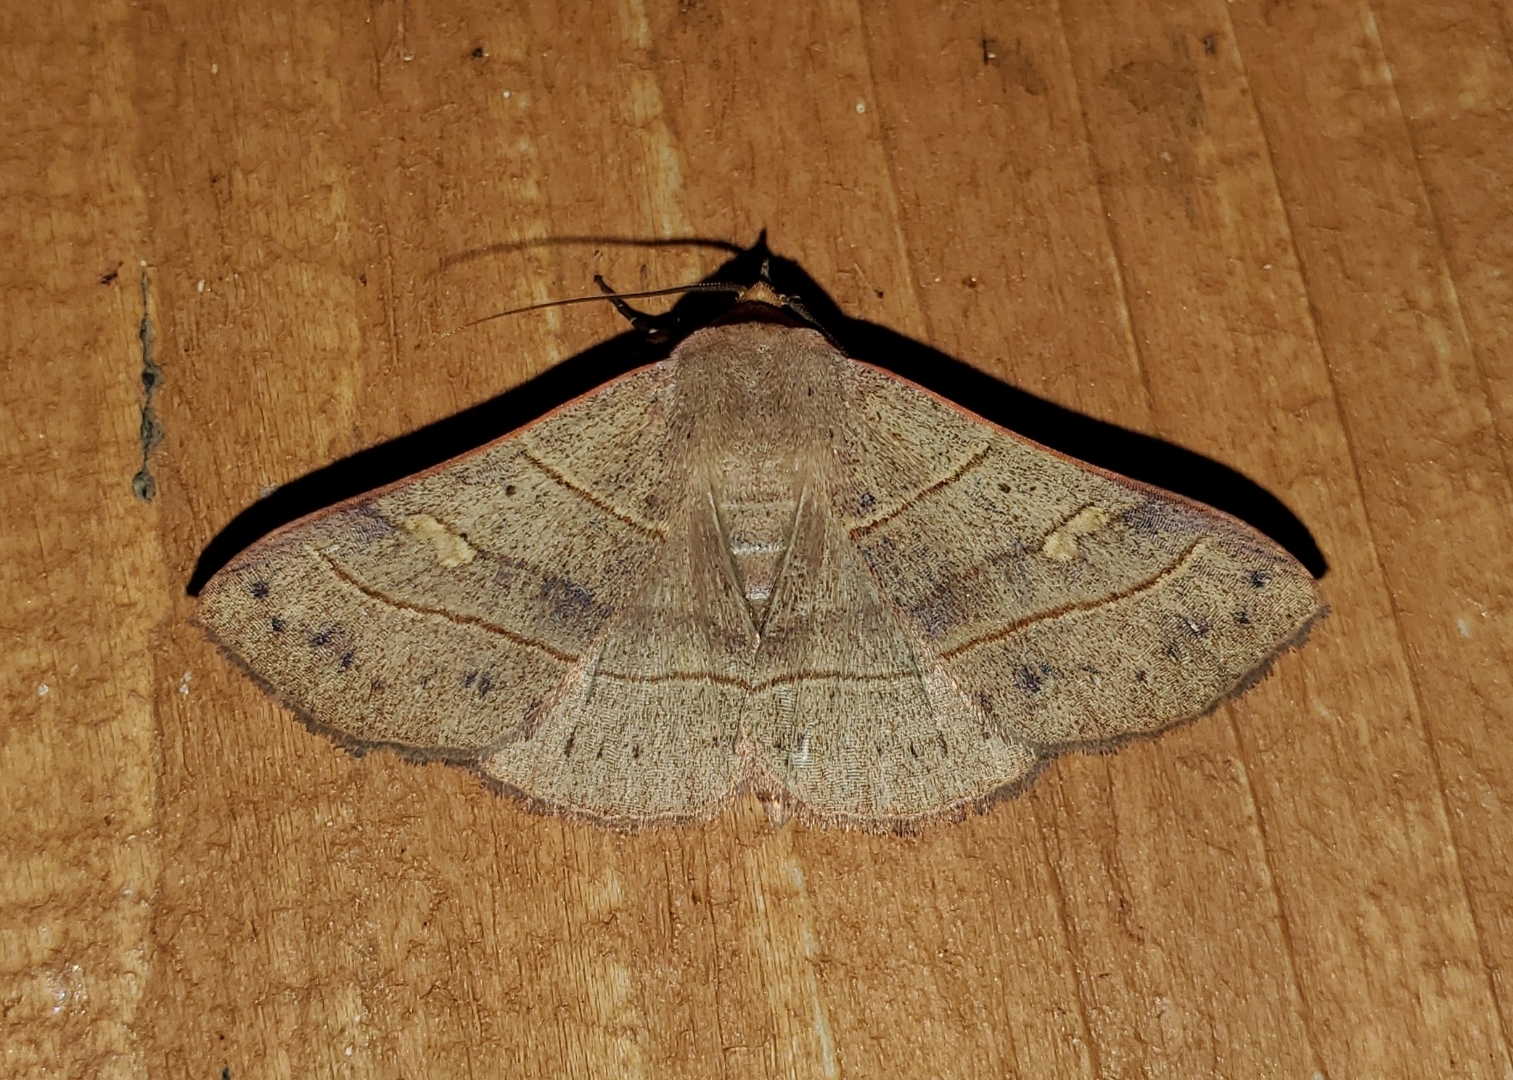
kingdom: Animalia
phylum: Arthropoda
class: Insecta
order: Lepidoptera
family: Erebidae
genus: Panopoda
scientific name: Panopoda rufimargo
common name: Red-lined panopoda moth
